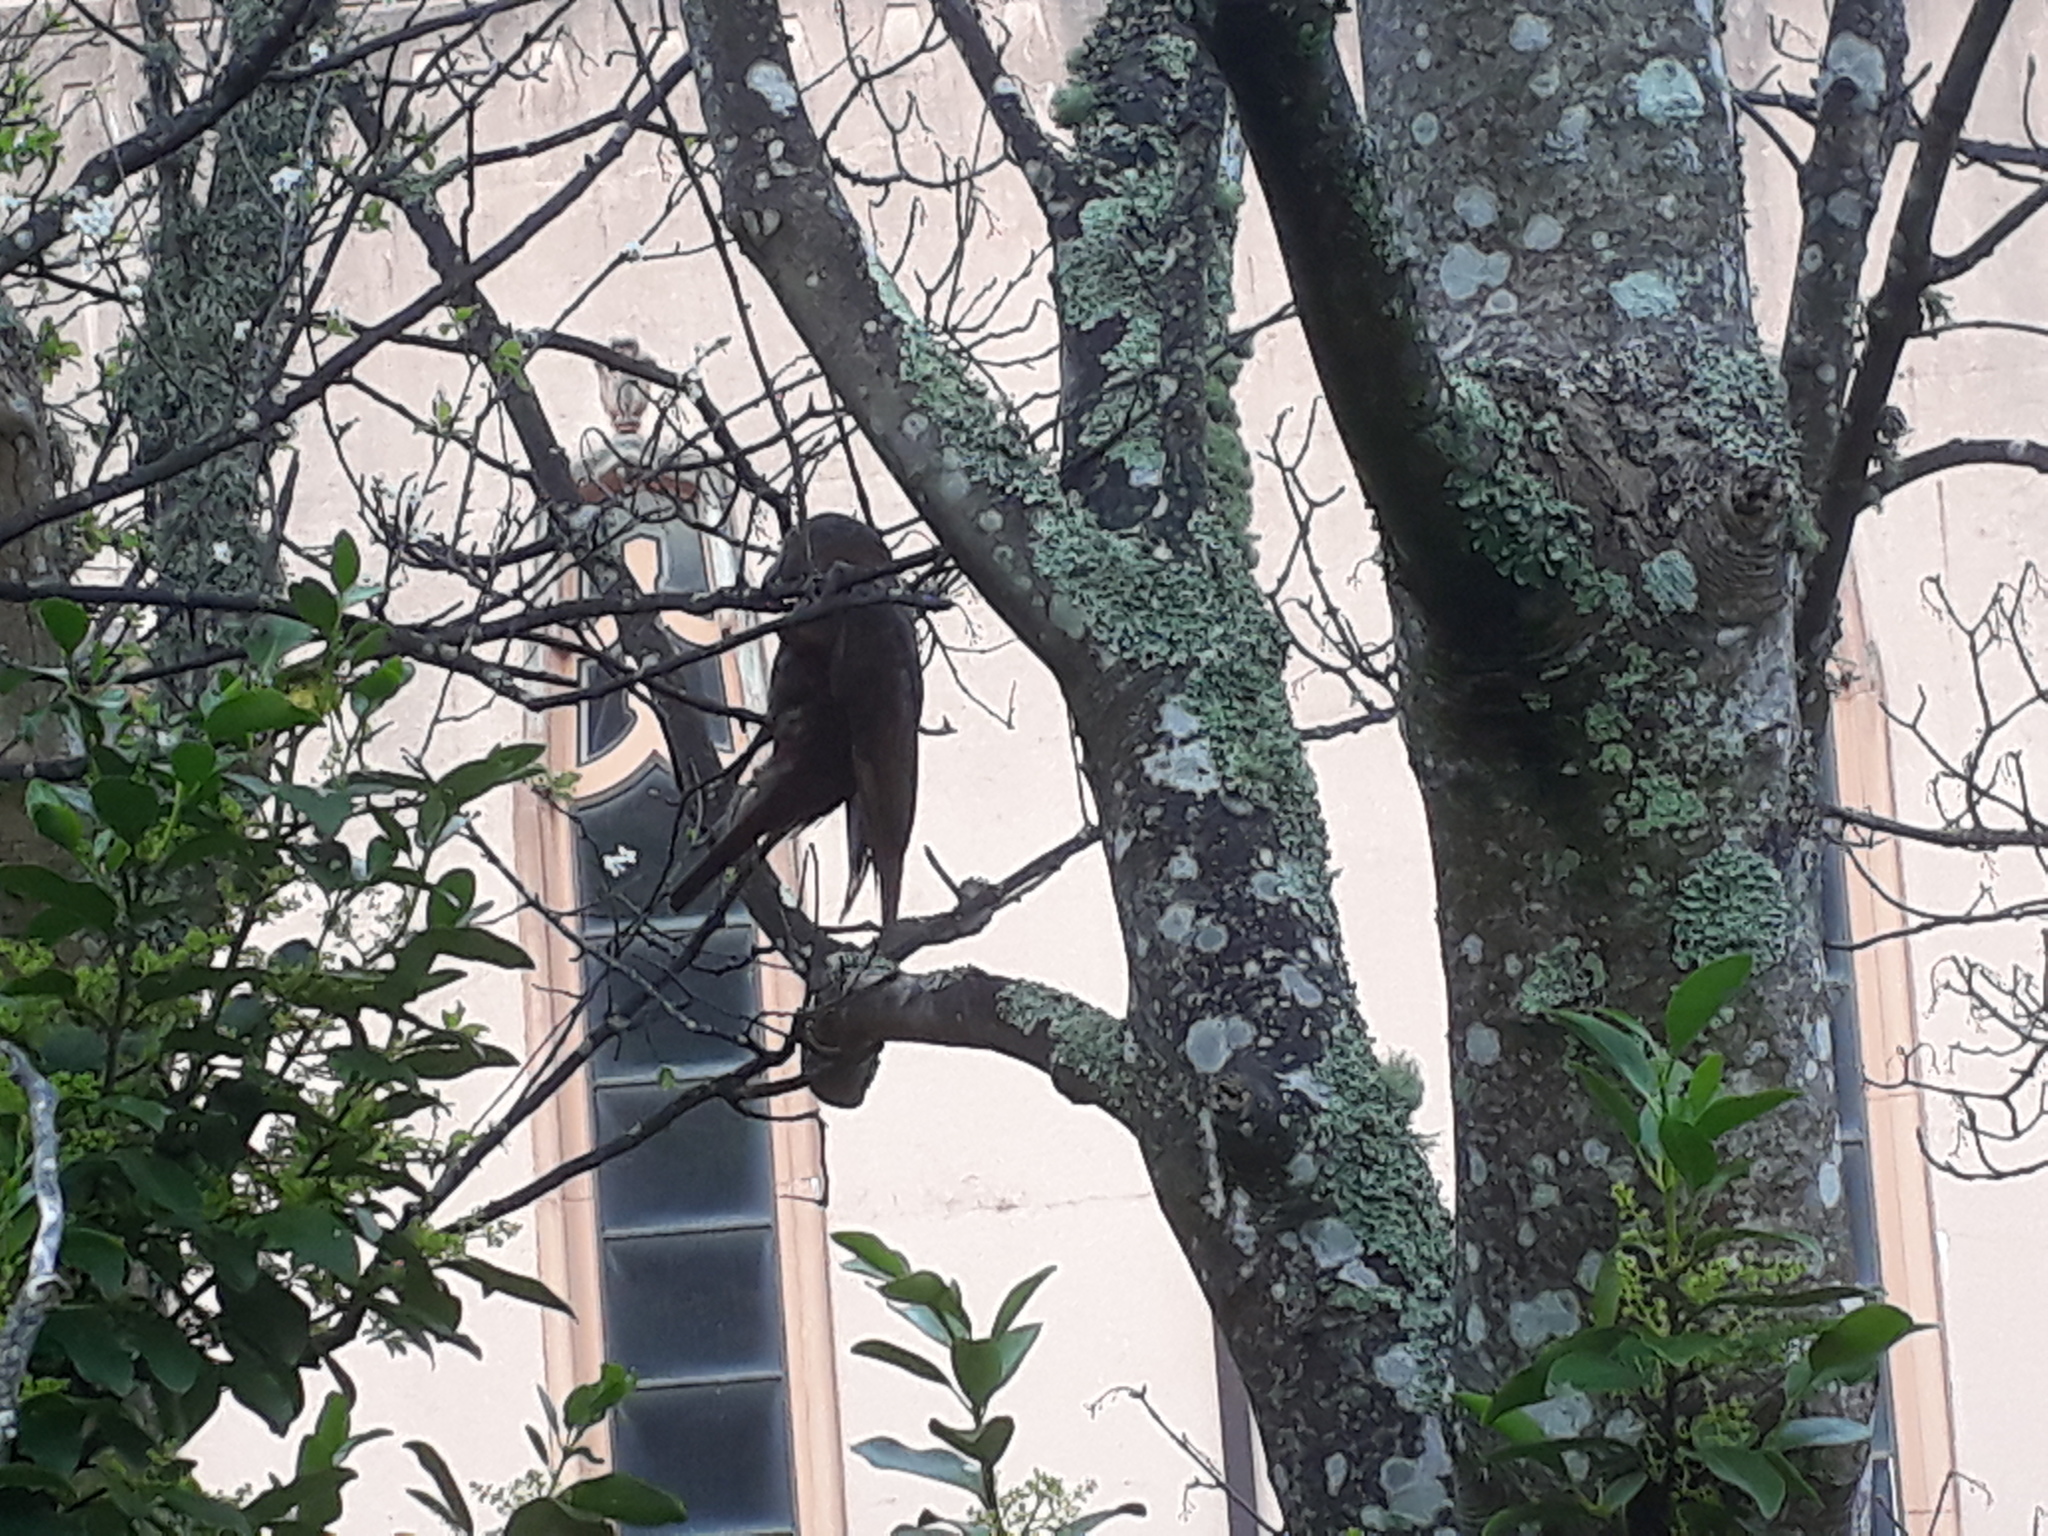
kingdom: Animalia
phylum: Chordata
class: Aves
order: Psittaciformes
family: Psittacidae
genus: Nestor
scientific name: Nestor meridionalis
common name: New zealand kaka
